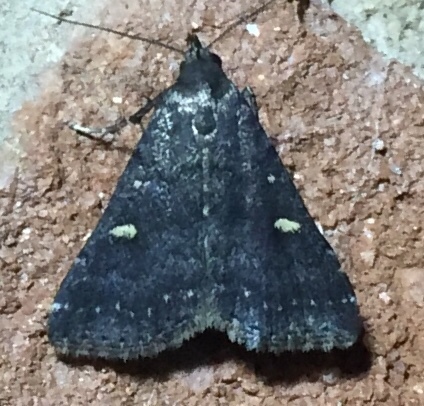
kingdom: Animalia
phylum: Arthropoda
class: Insecta
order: Lepidoptera
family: Erebidae
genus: Tetanolita
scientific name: Tetanolita mynesalis
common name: Smoky tetanolita moth
